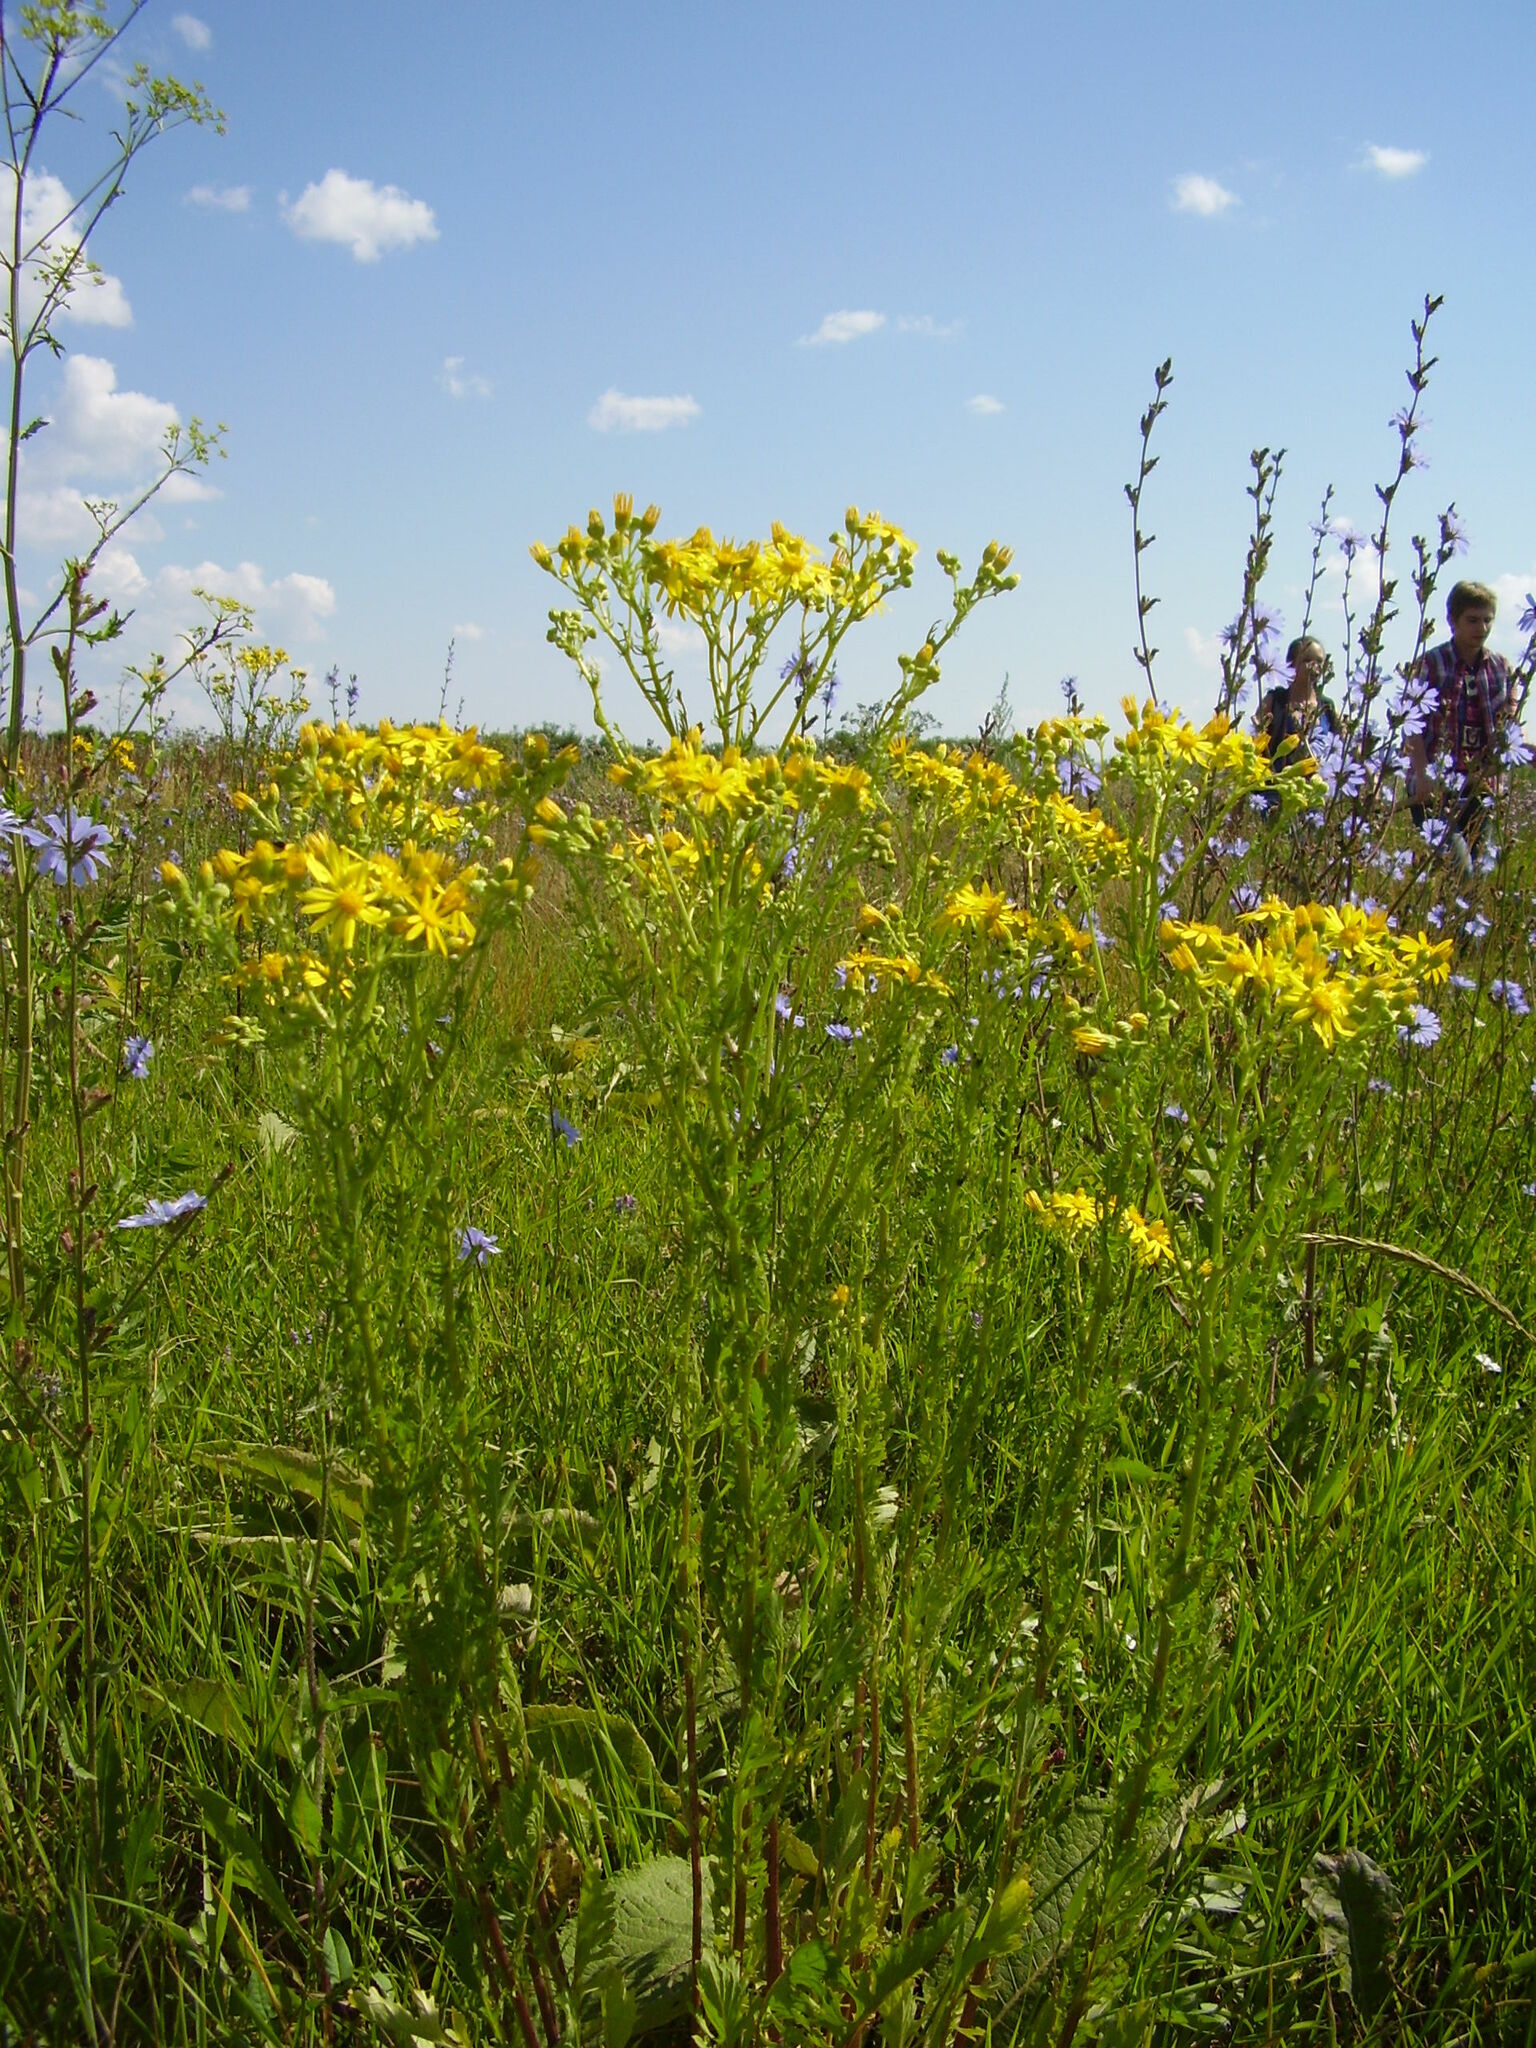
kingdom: Plantae
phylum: Tracheophyta
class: Magnoliopsida
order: Asterales
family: Asteraceae
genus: Jacobaea
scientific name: Jacobaea vulgaris
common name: Stinking willie
